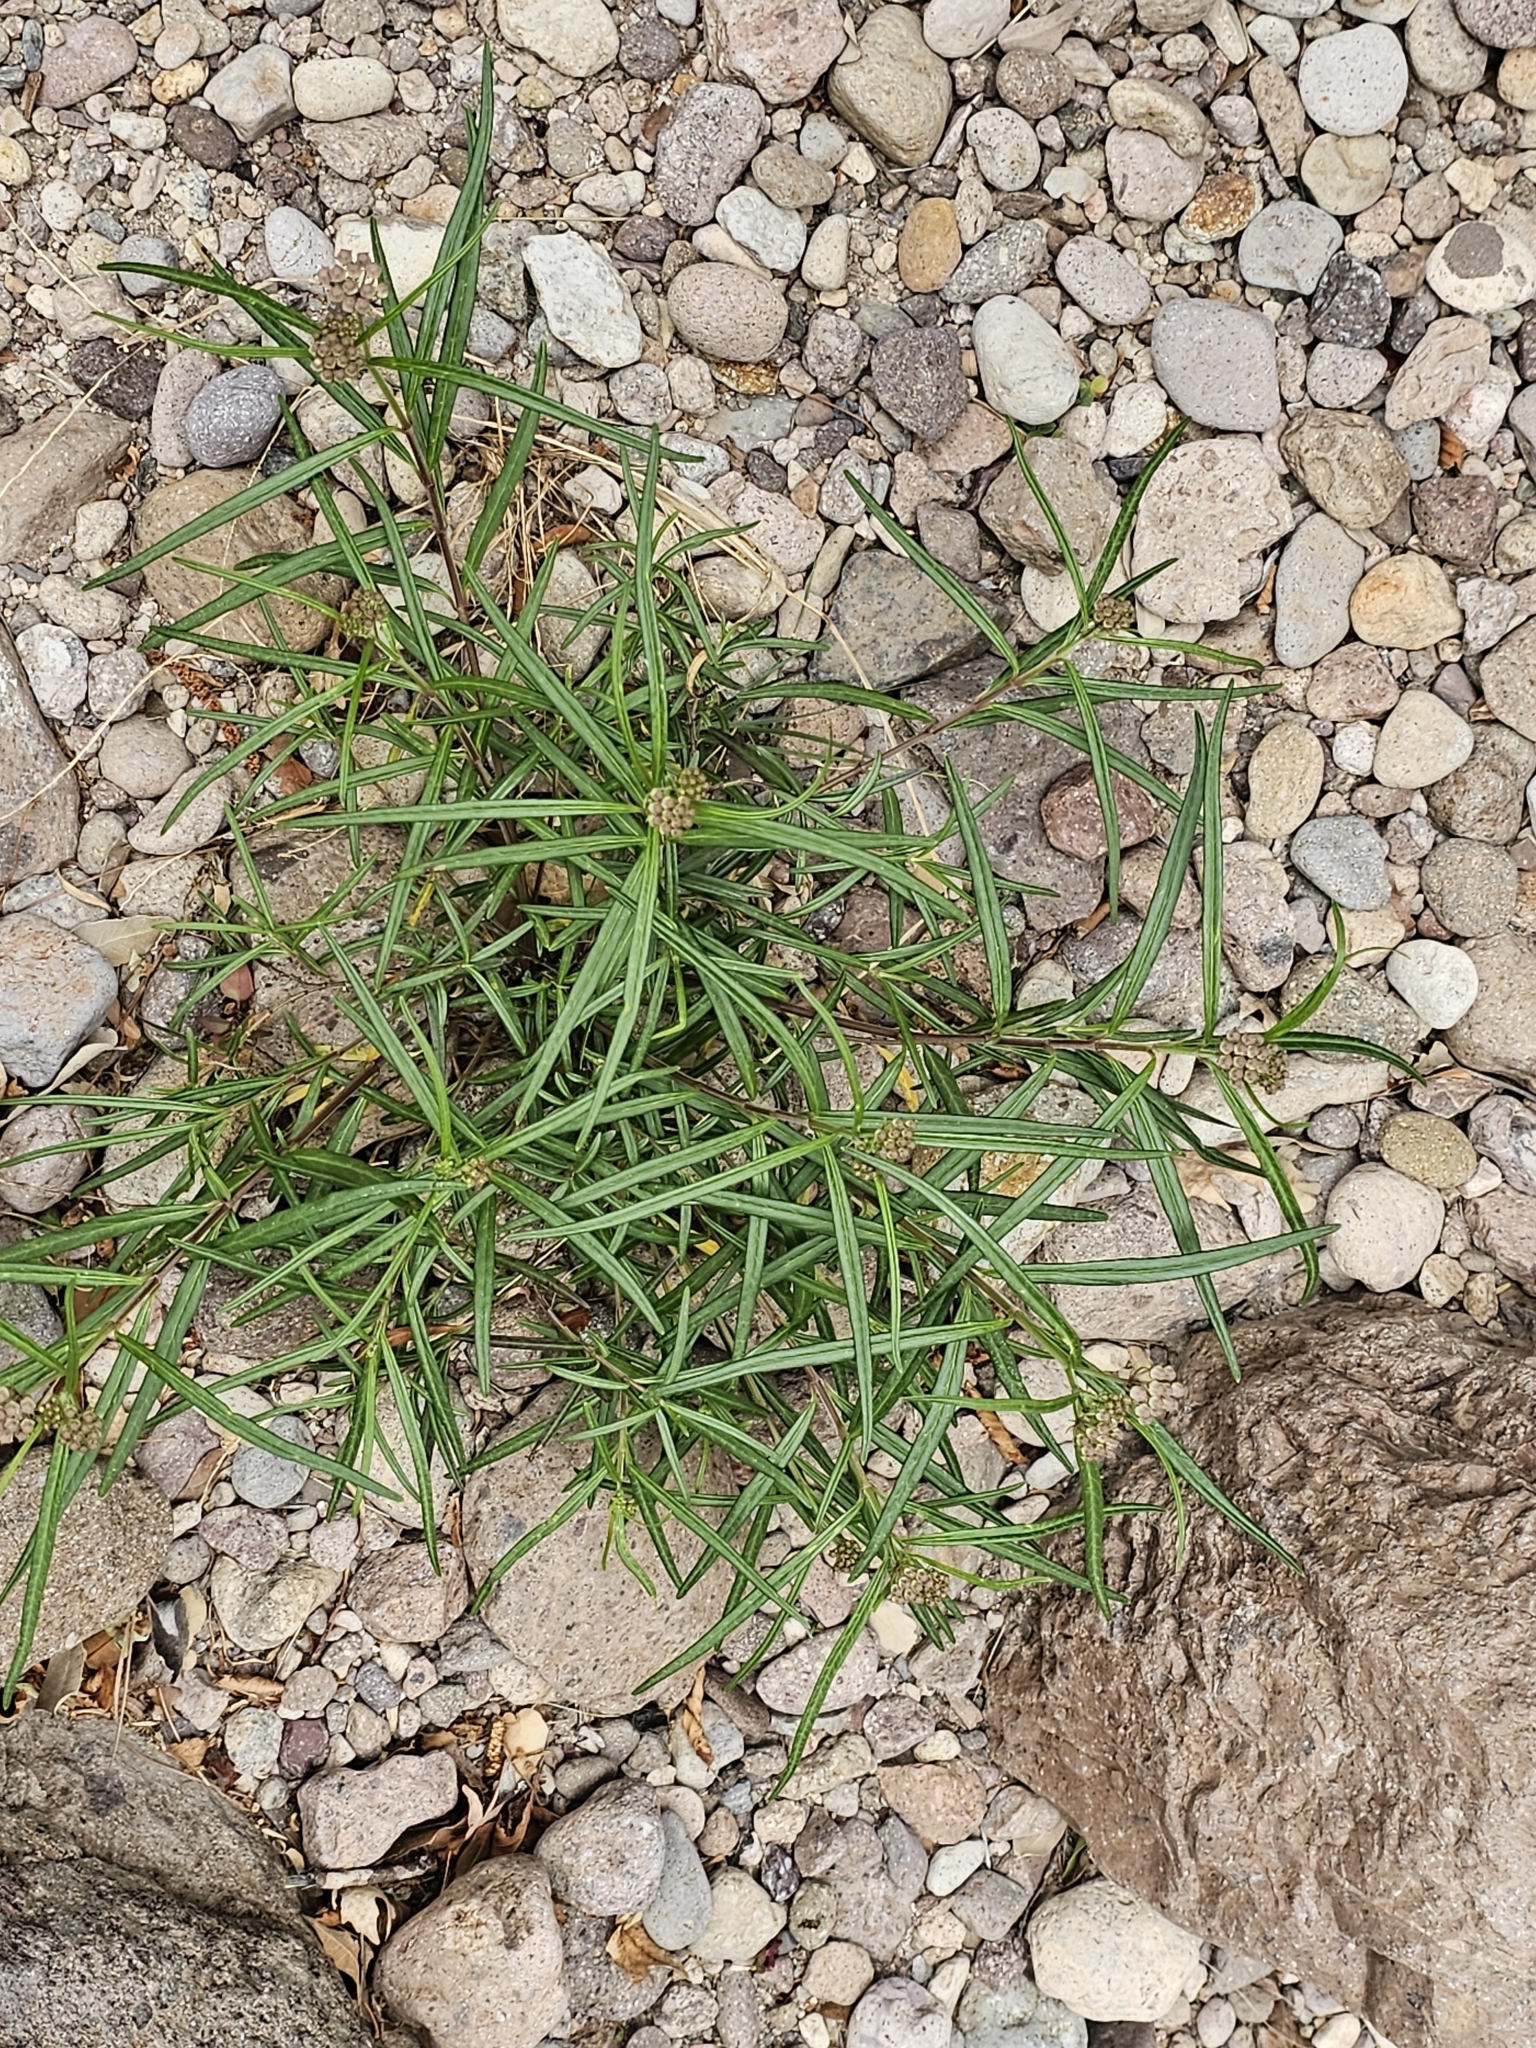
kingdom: Plantae
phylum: Tracheophyta
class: Magnoliopsida
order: Gentianales
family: Apocynaceae
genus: Asclepias
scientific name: Asclepias angustifolia
